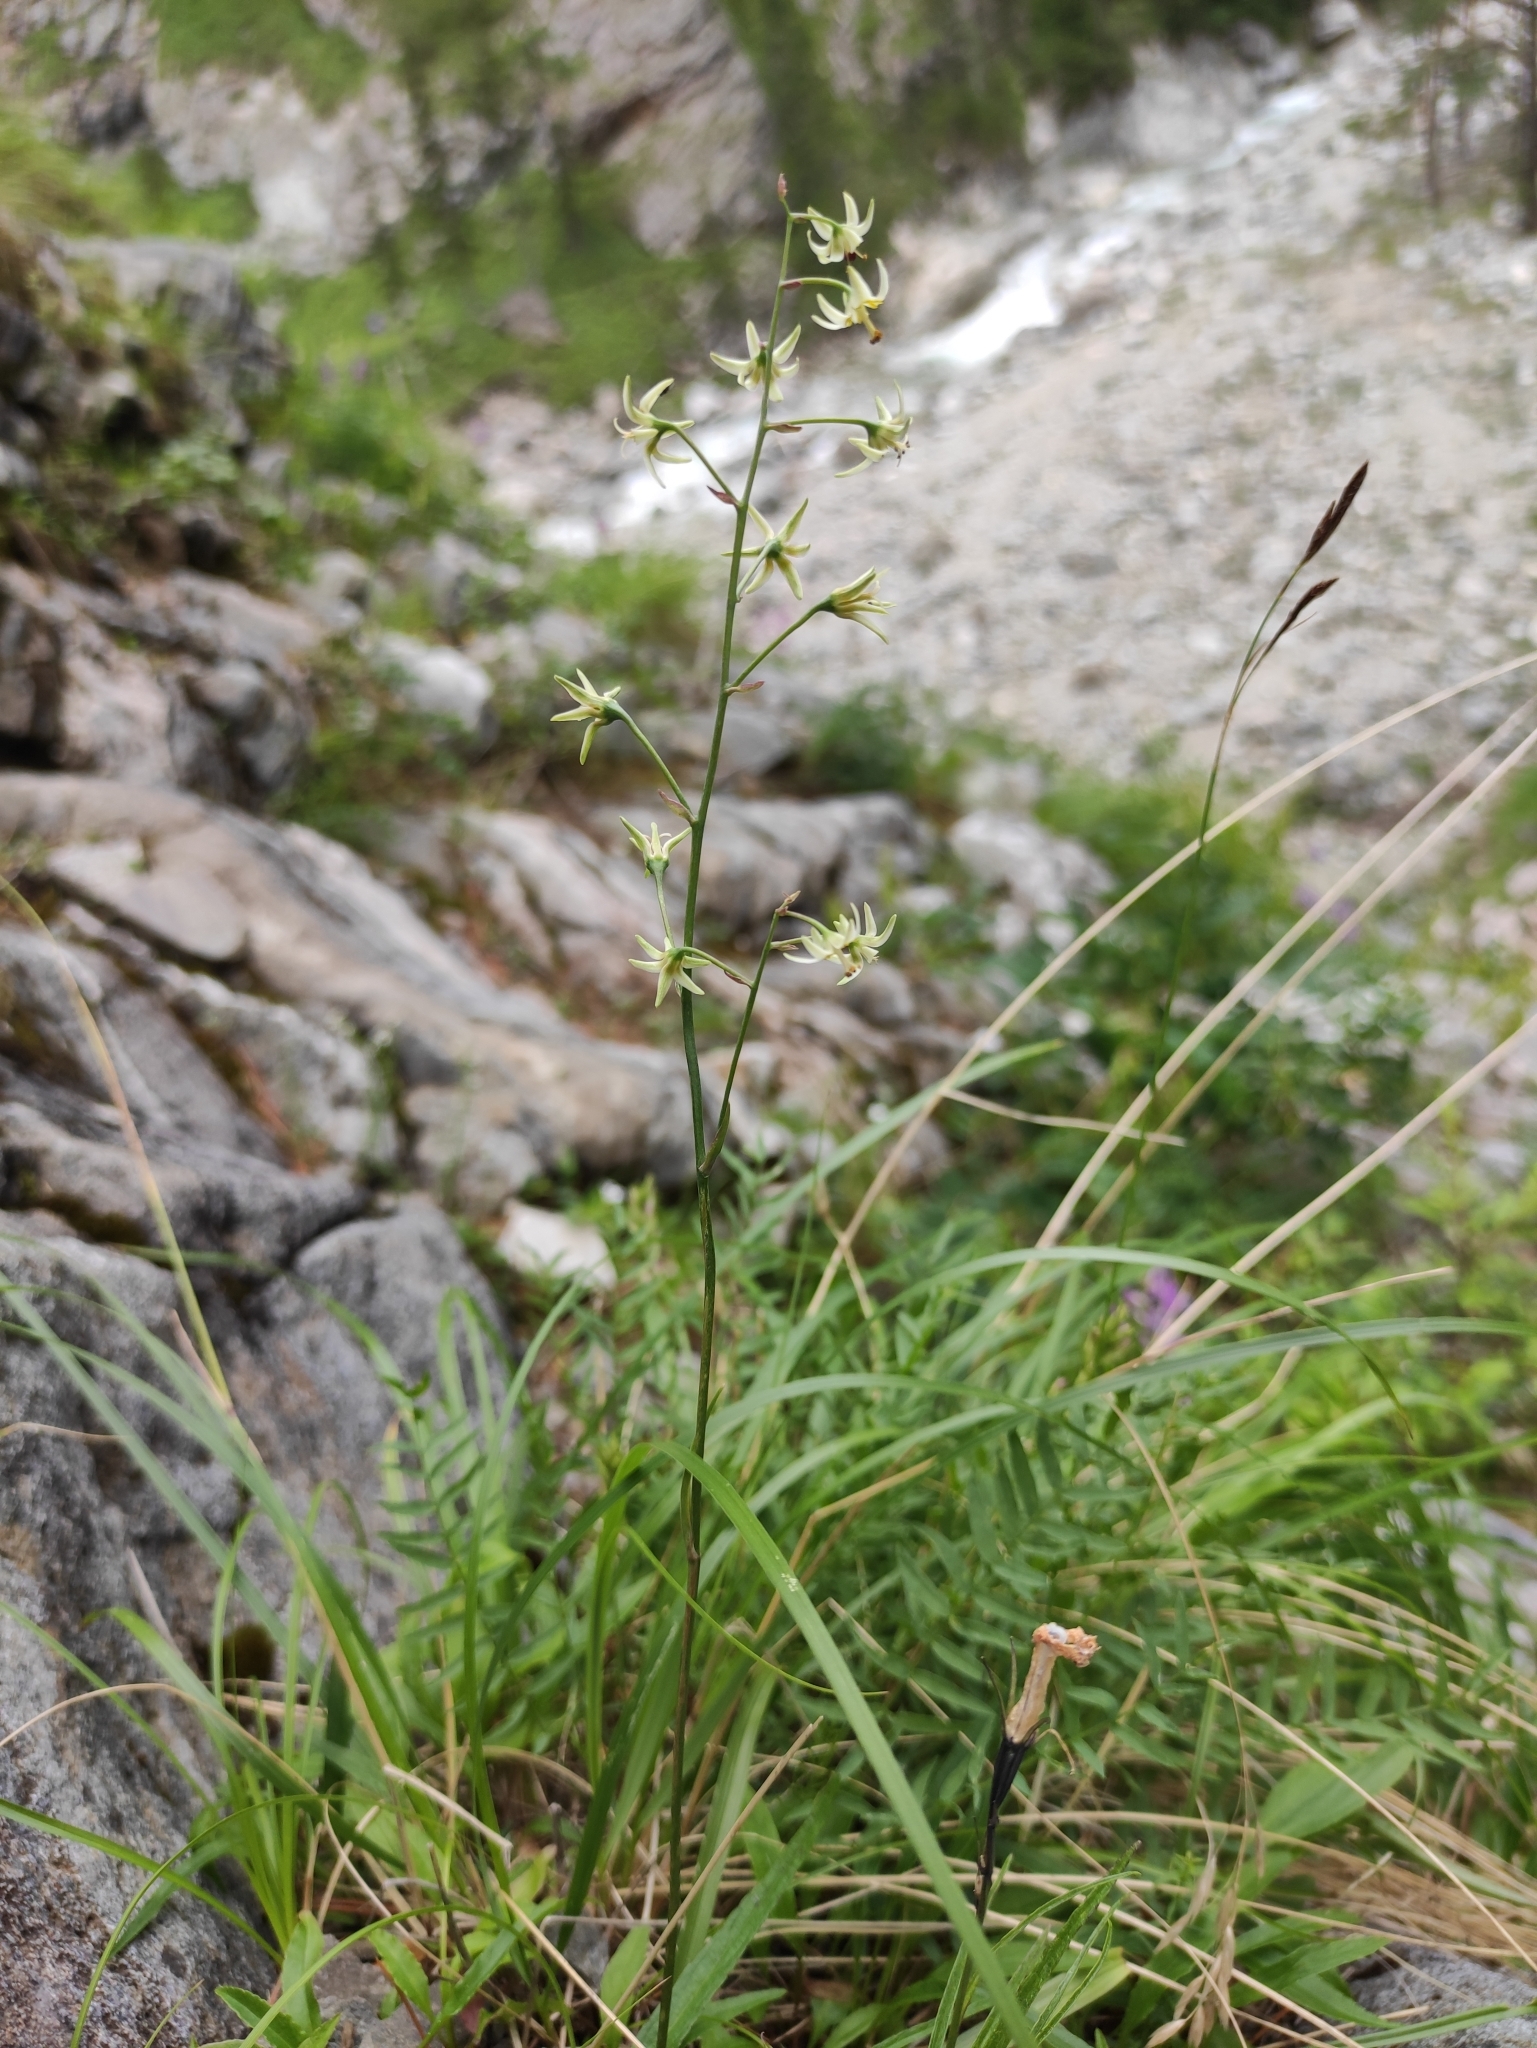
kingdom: Plantae
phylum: Tracheophyta
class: Liliopsida
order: Liliales
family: Melanthiaceae
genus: Anticlea
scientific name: Anticlea sibirica
